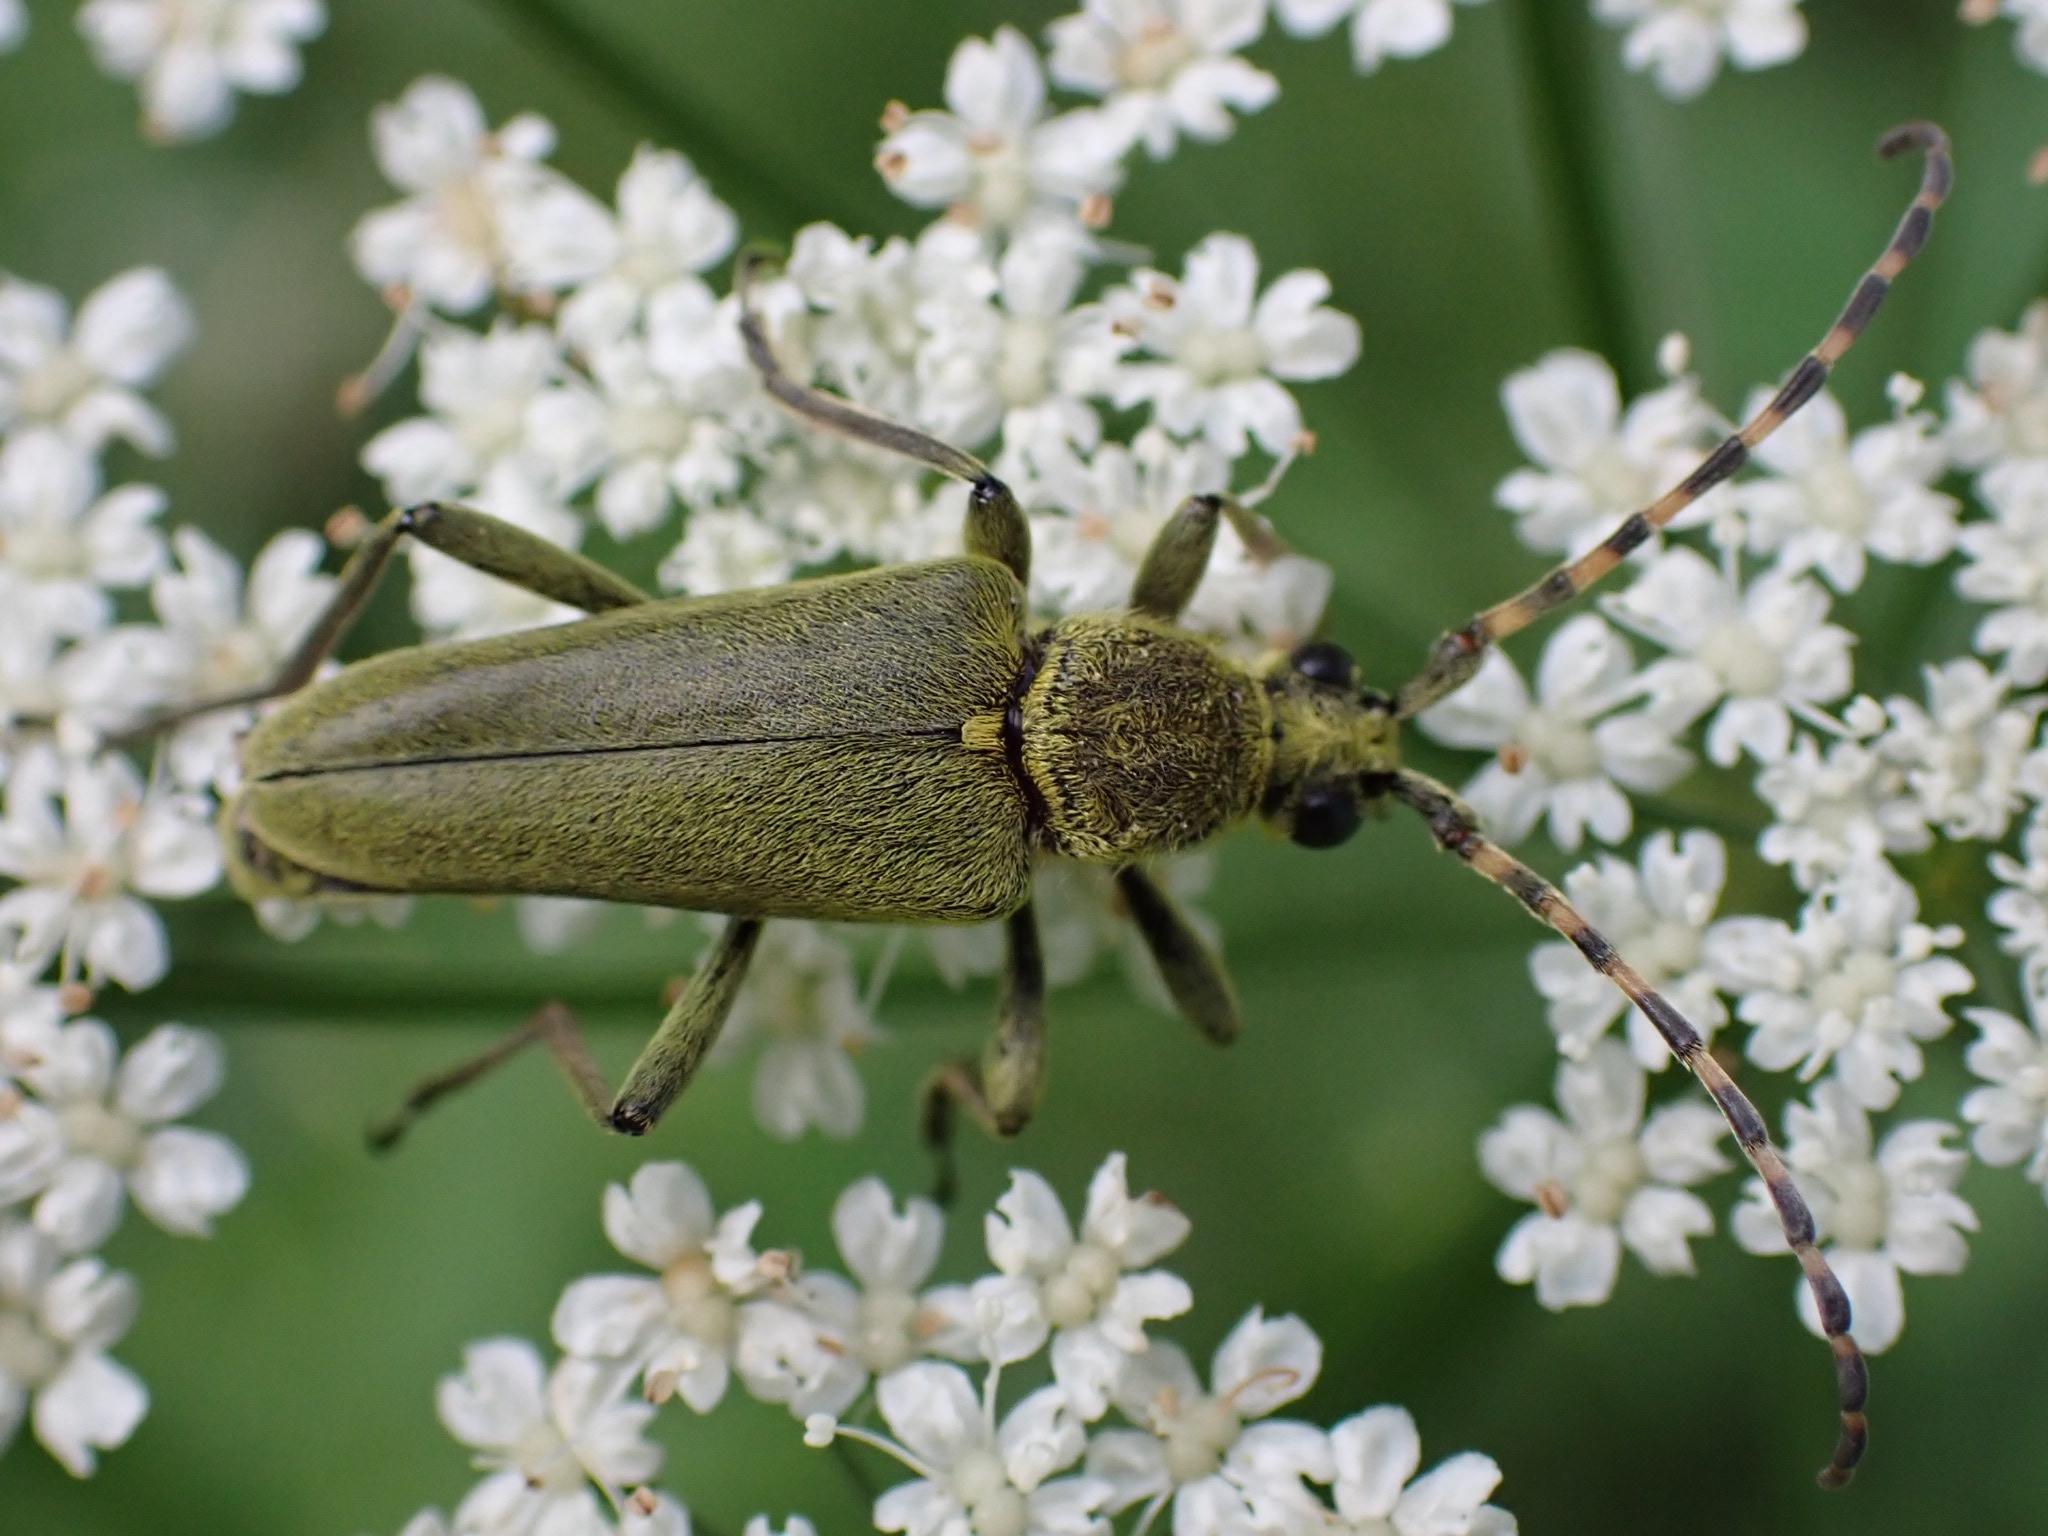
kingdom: Animalia
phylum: Arthropoda
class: Insecta
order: Coleoptera
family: Cerambycidae
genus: Lepturobosca
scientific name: Lepturobosca virens
